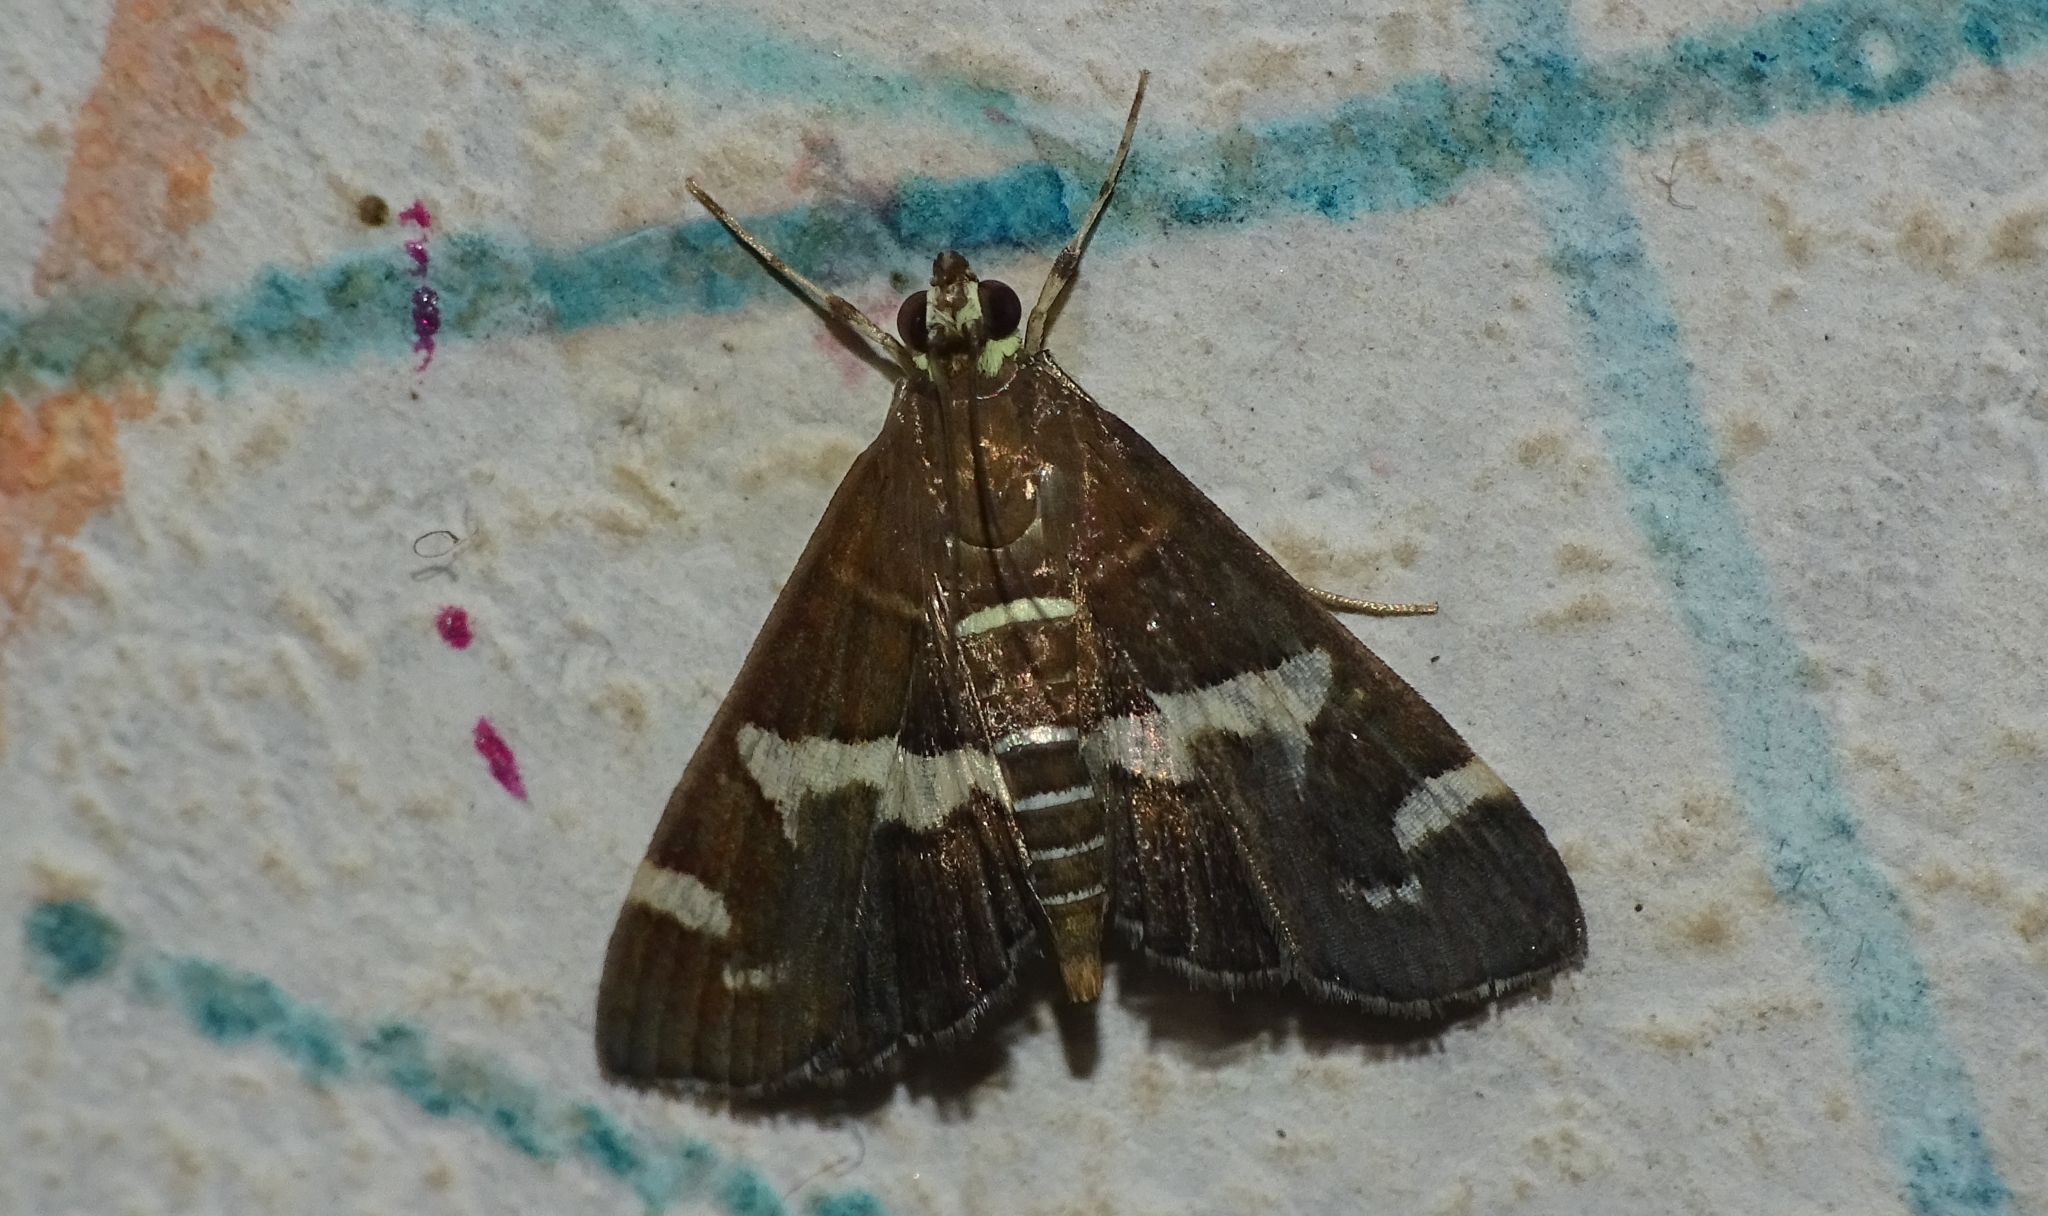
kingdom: Animalia
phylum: Arthropoda
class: Insecta
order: Lepidoptera
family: Crambidae
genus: Spoladea
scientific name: Spoladea recurvalis
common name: Beet webworm moth
